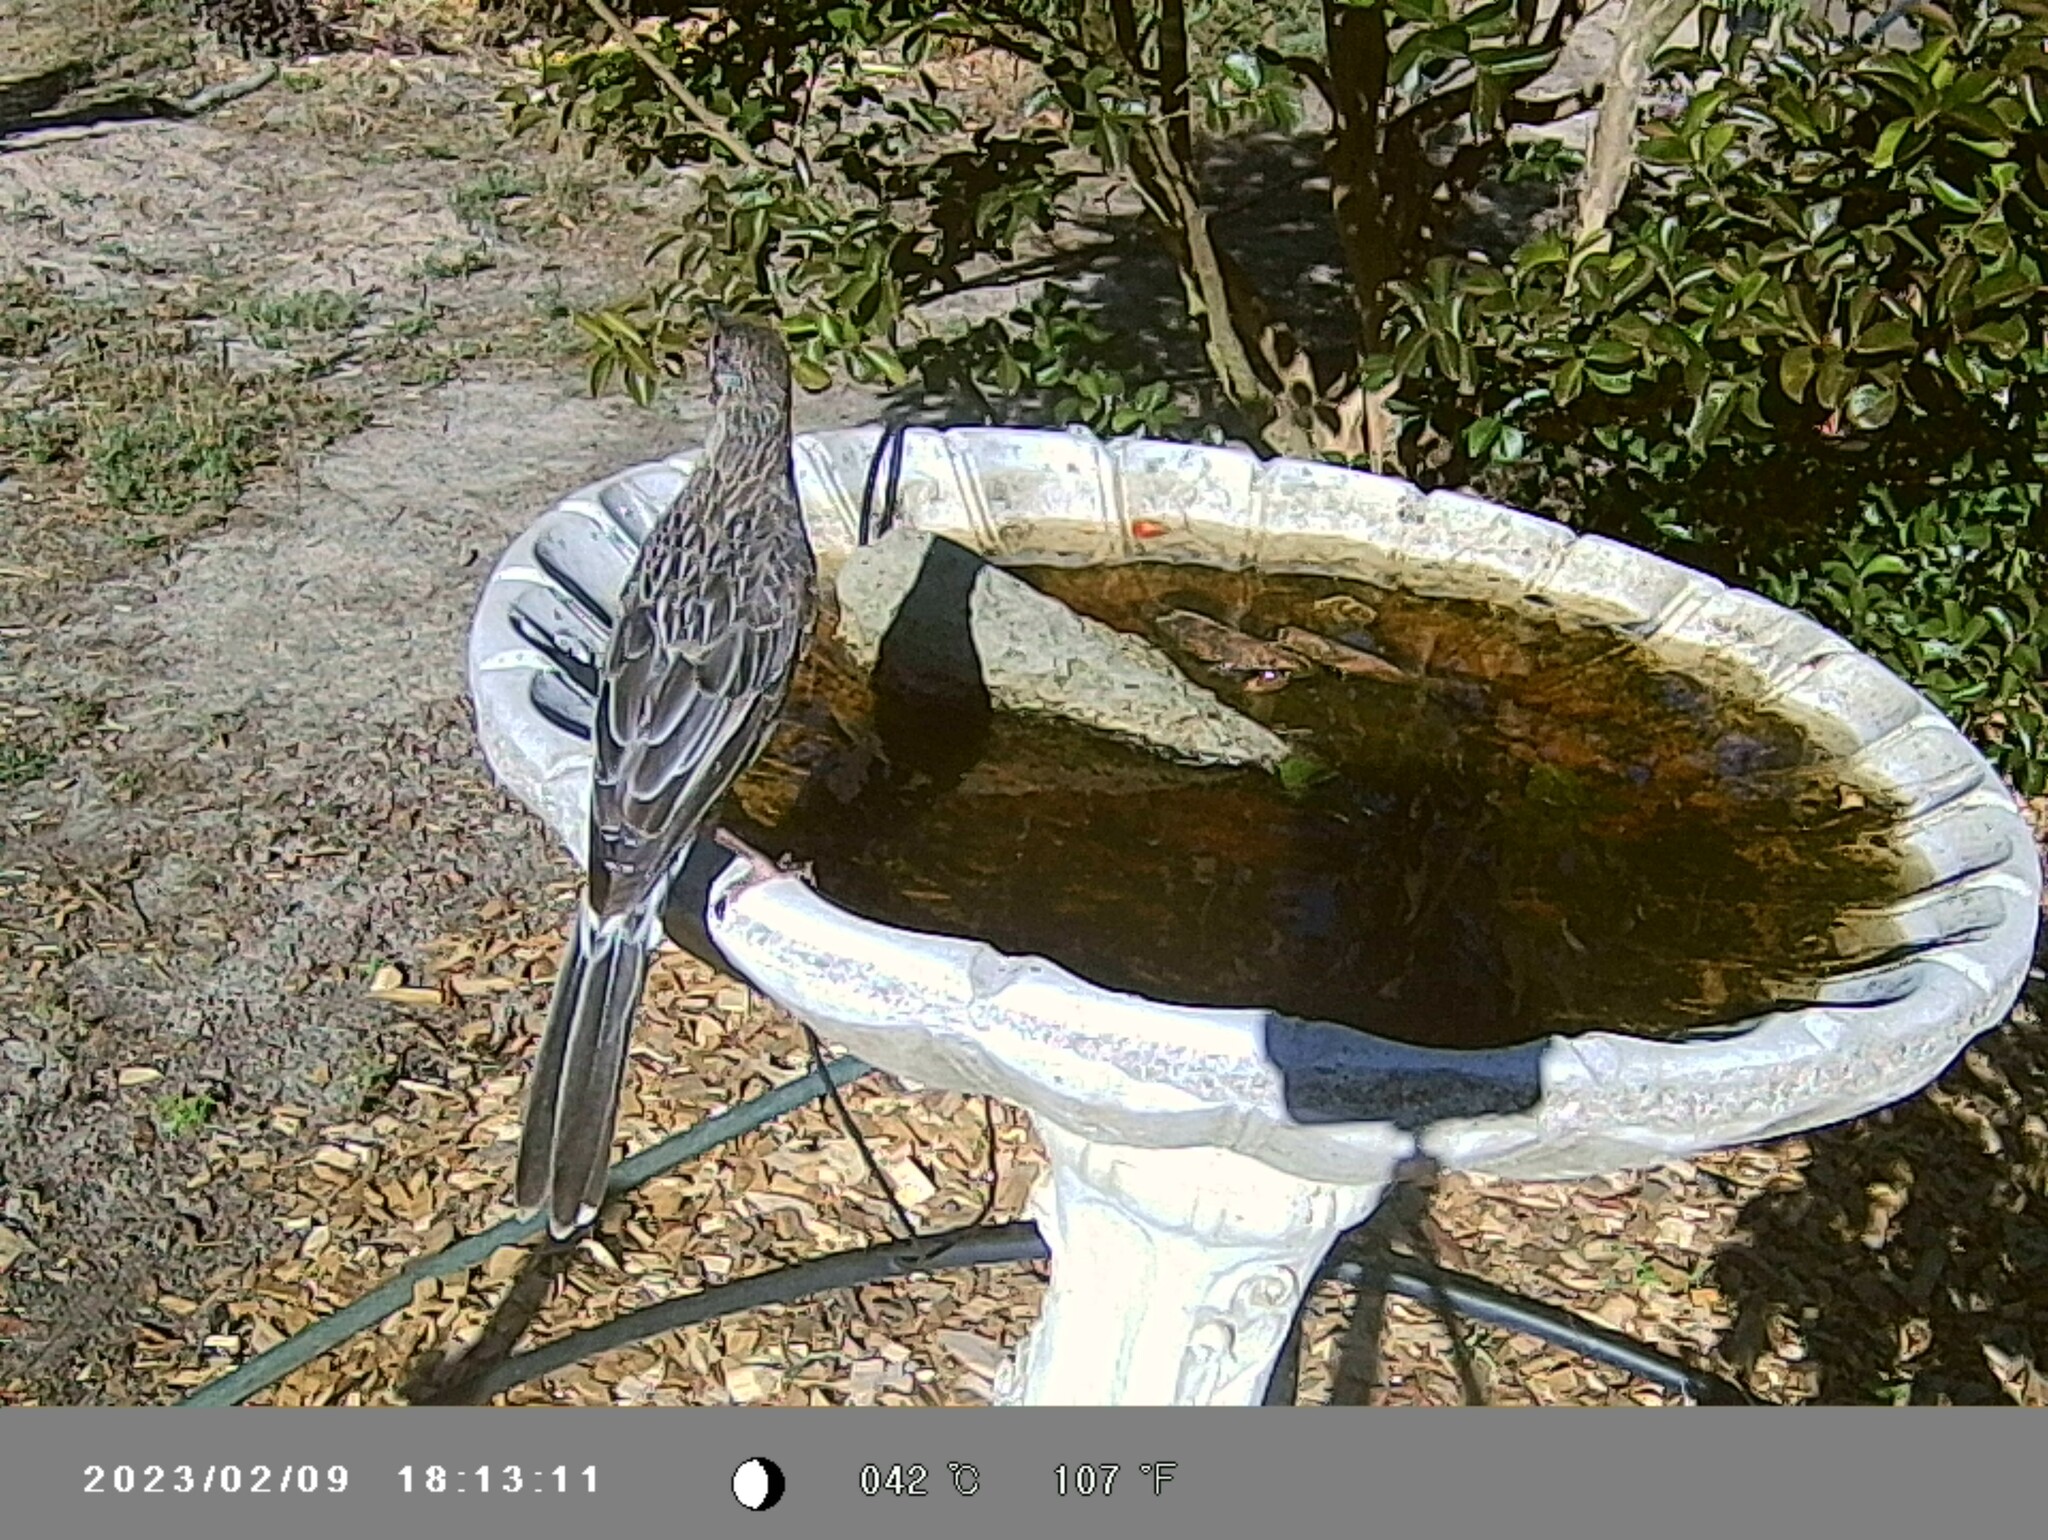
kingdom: Animalia
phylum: Chordata
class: Aves
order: Passeriformes
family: Meliphagidae
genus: Anthochaera
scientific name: Anthochaera carunculata
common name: Red wattlebird
